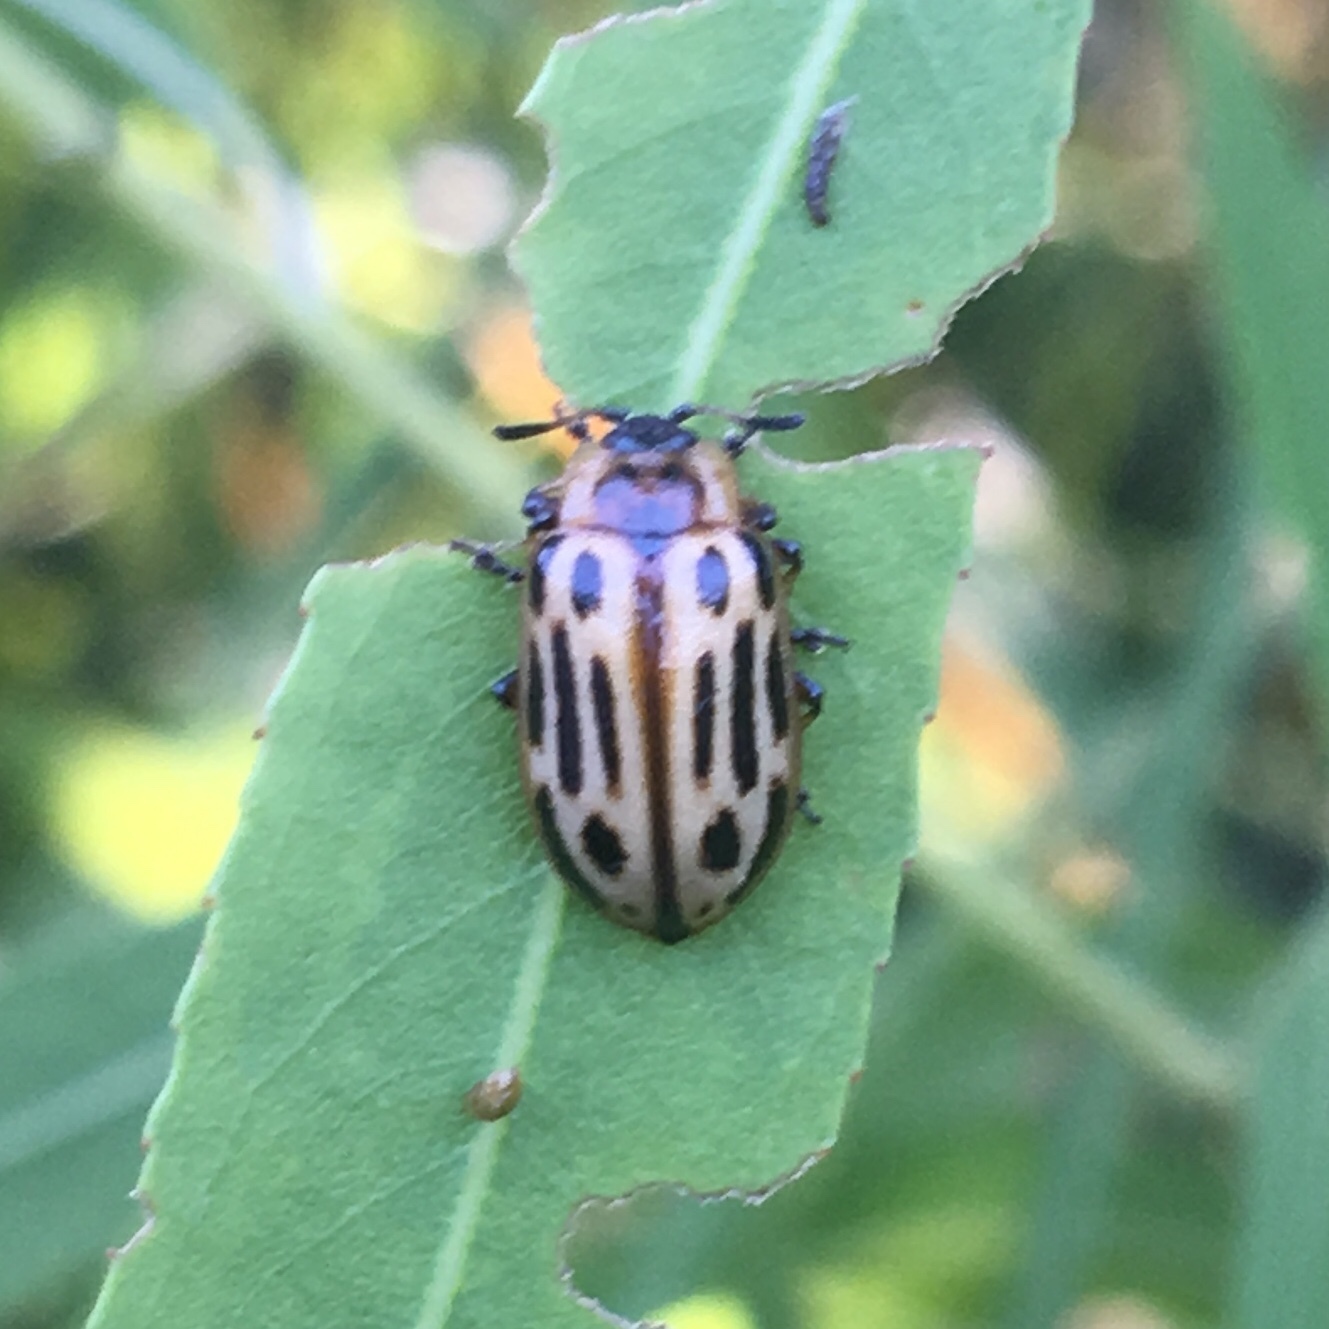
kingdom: Animalia
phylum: Arthropoda
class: Insecta
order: Coleoptera
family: Chrysomelidae
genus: Aethiopocassis
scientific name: Aethiopocassis scripta
